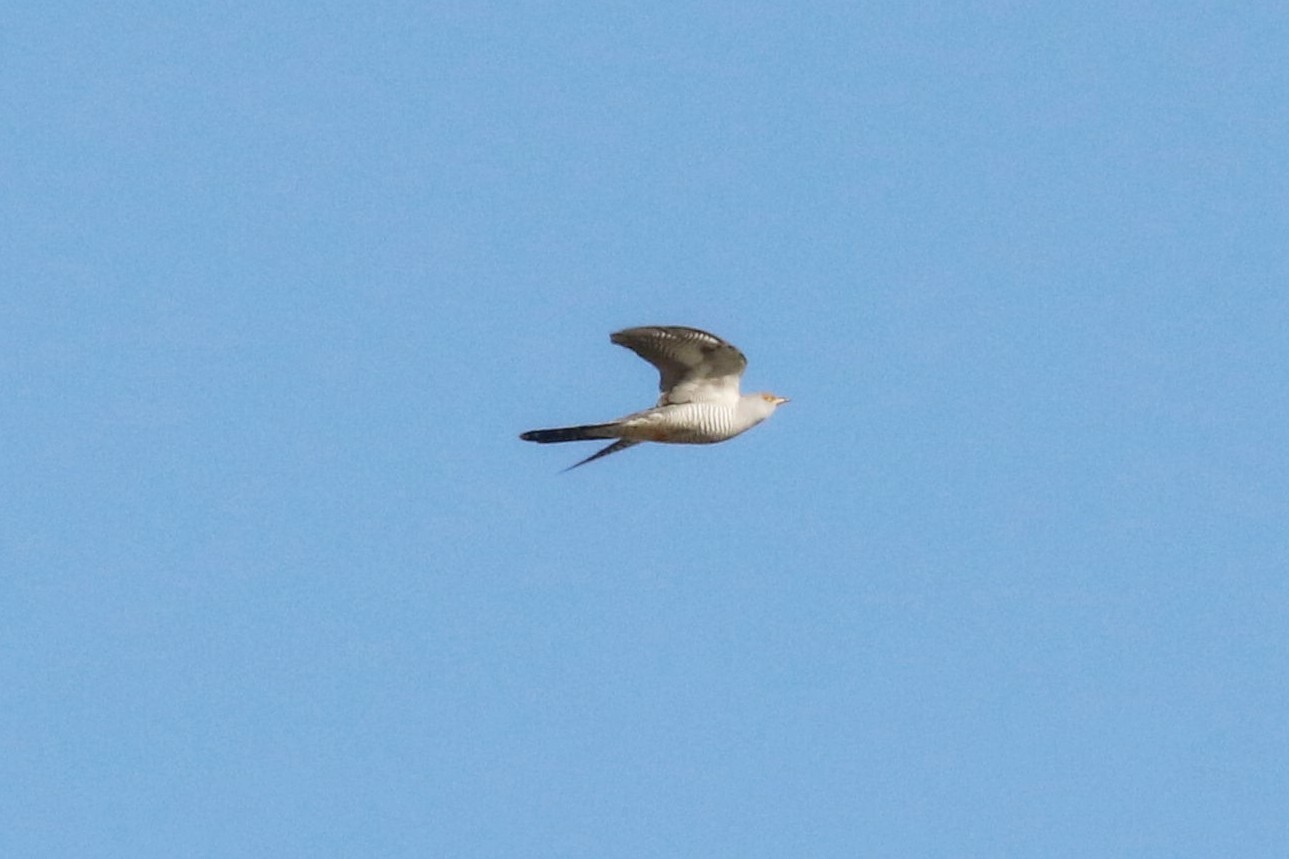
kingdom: Animalia
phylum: Chordata
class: Aves
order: Cuculiformes
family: Cuculidae
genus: Cuculus
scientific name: Cuculus canorus
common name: Common cuckoo
